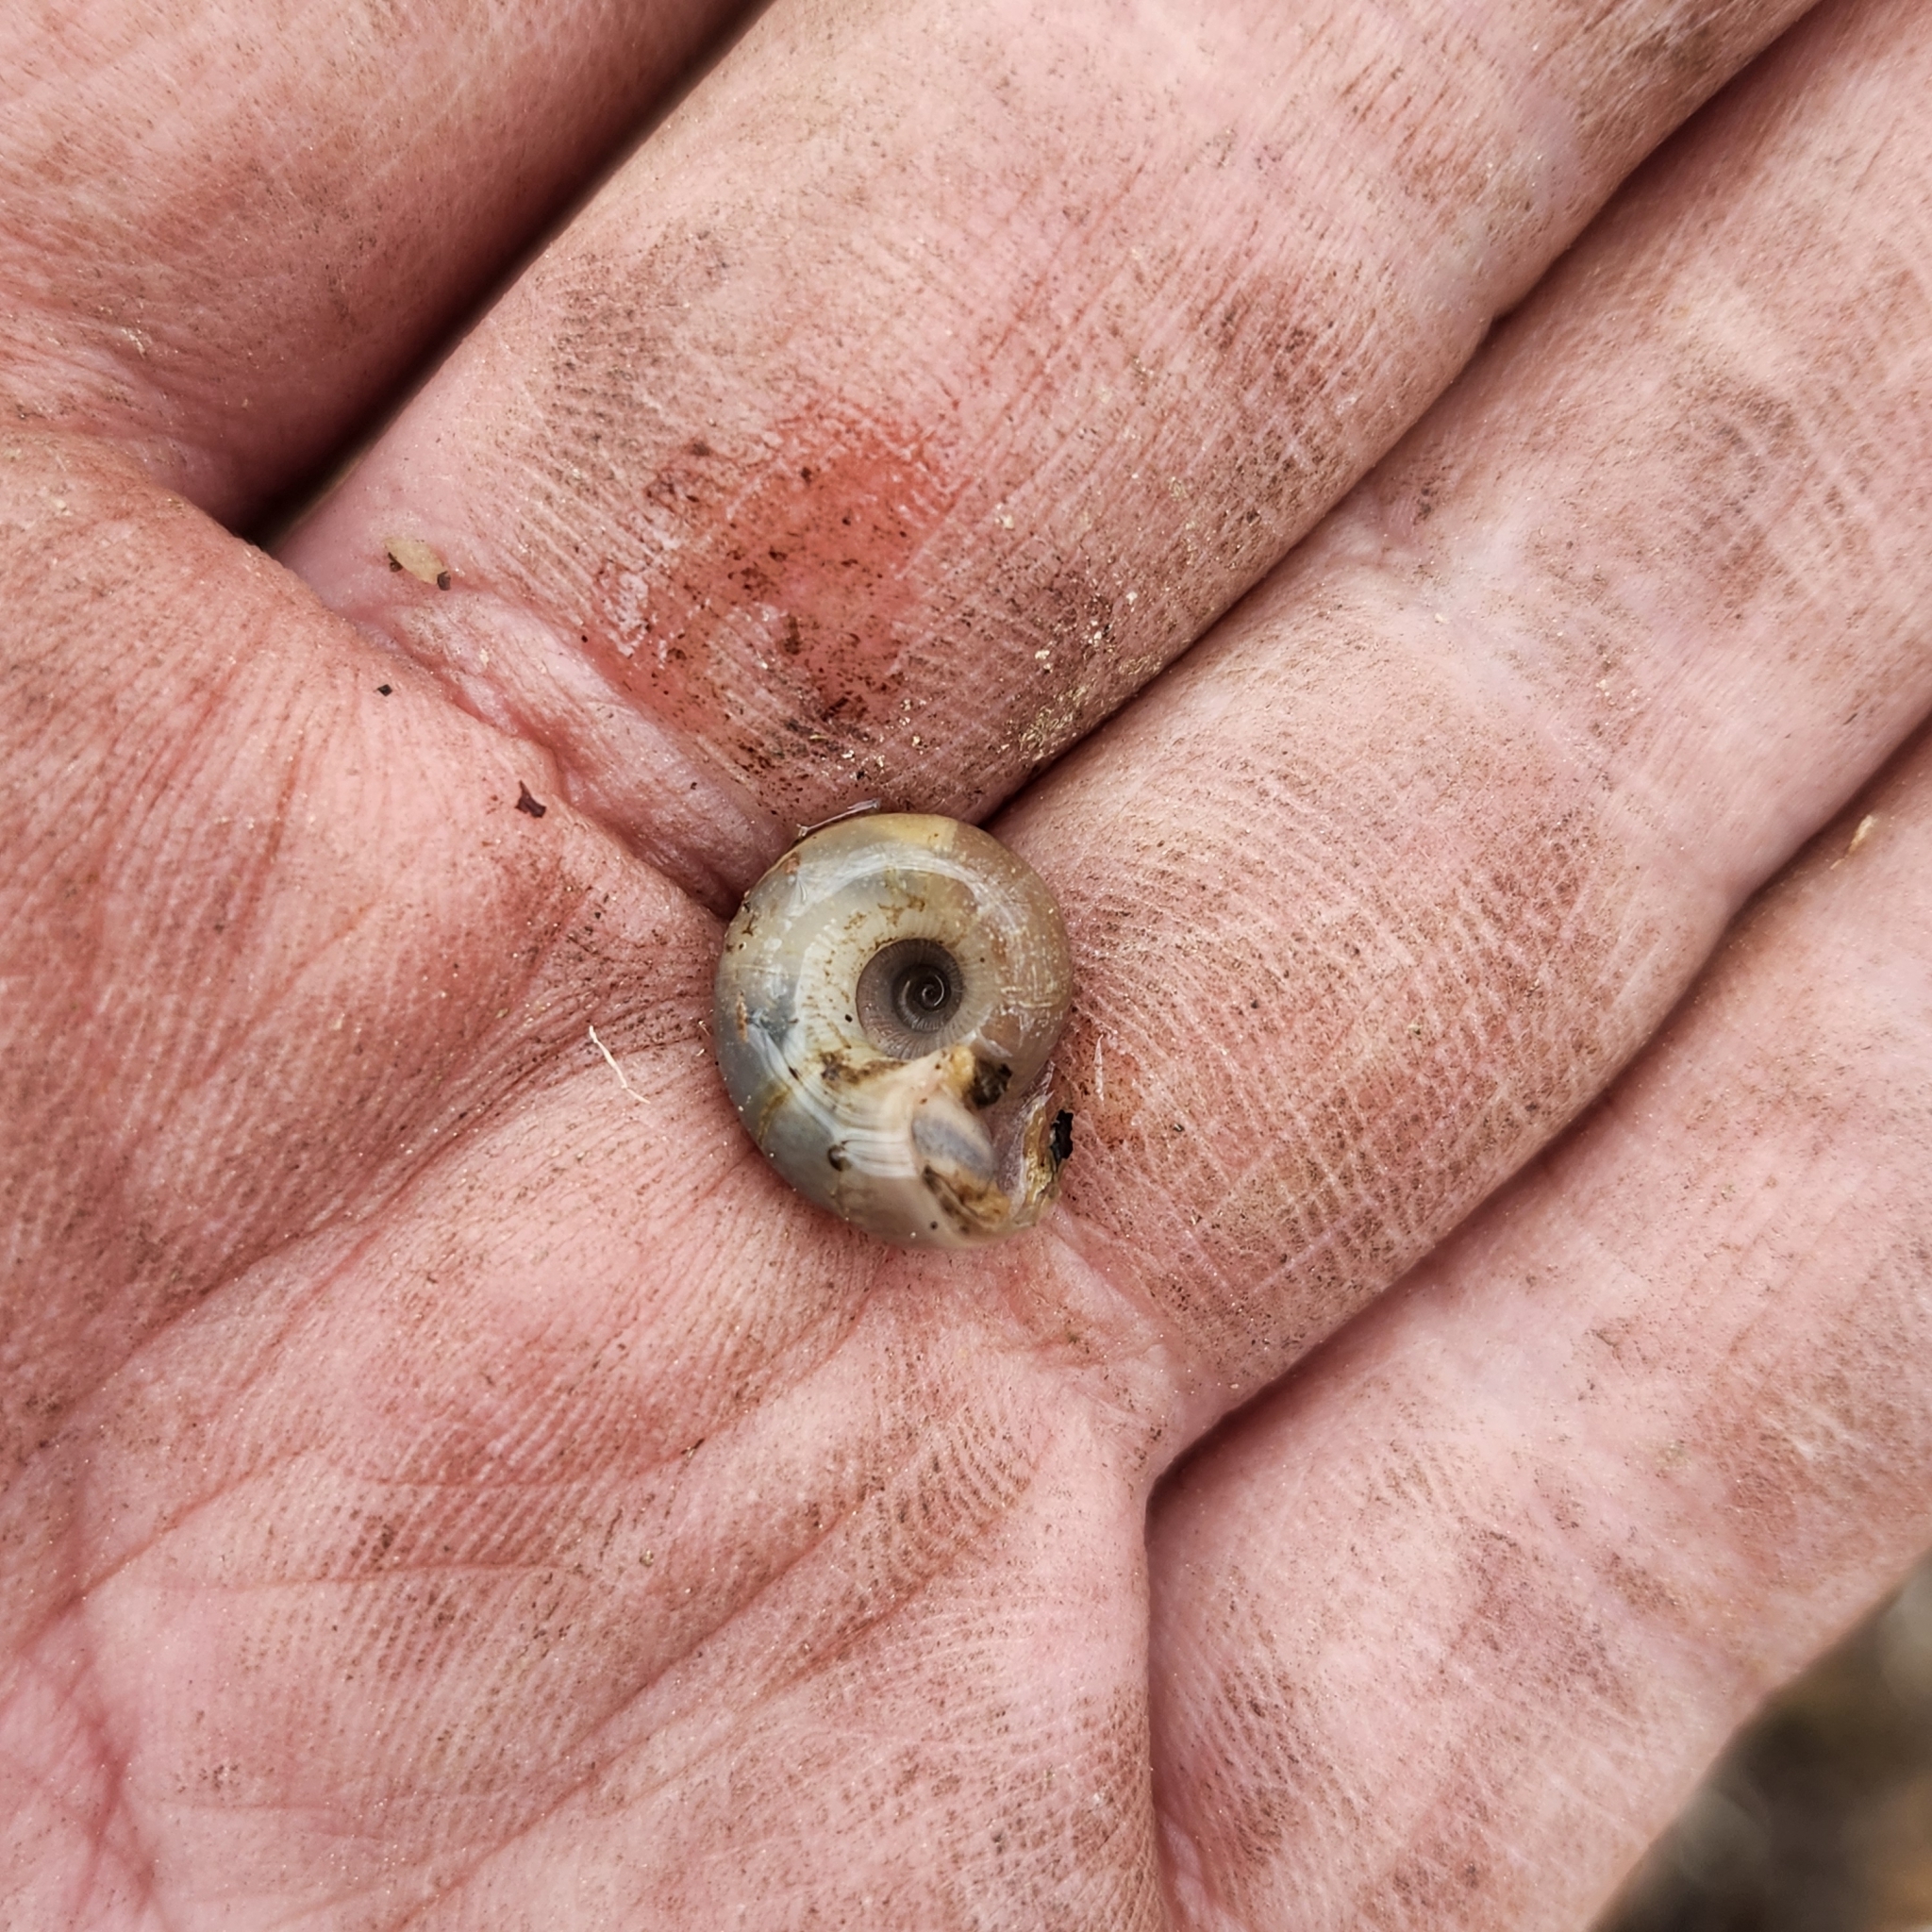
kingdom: Animalia
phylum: Mollusca
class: Gastropoda
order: Stylommatophora
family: Haplotrematidae
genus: Haplotrema
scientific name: Haplotrema concavum
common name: Gray-foot lancetooth
